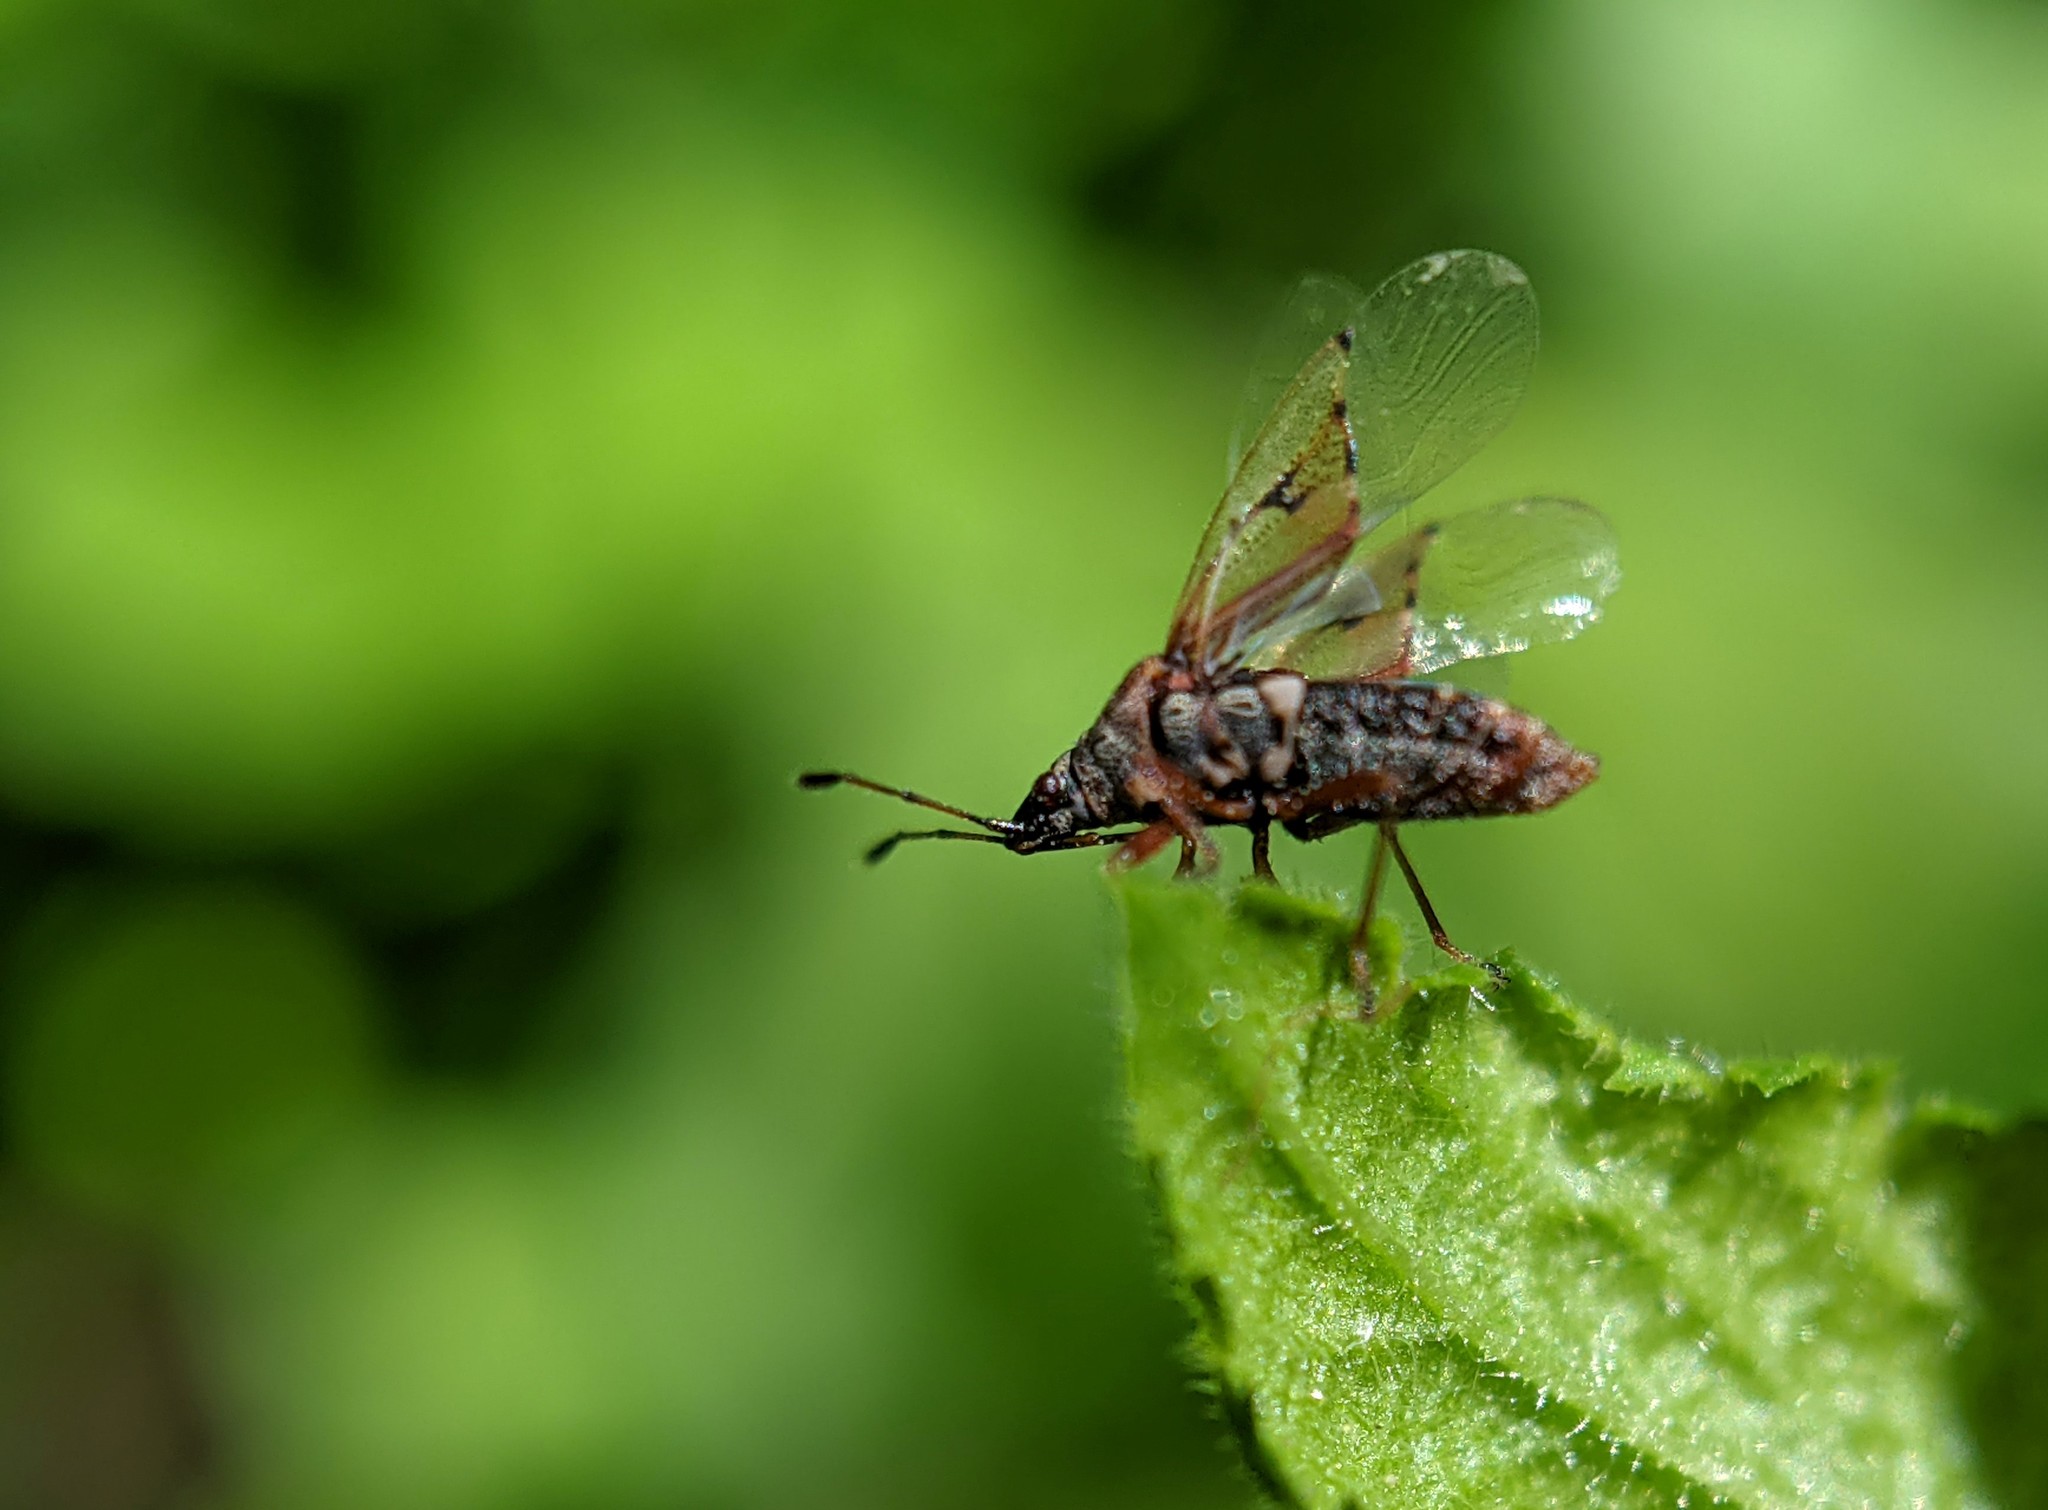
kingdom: Animalia
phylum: Arthropoda
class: Insecta
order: Hemiptera
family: Lygaeidae
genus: Kleidocerys
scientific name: Kleidocerys resedae
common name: Birch catkin bug
